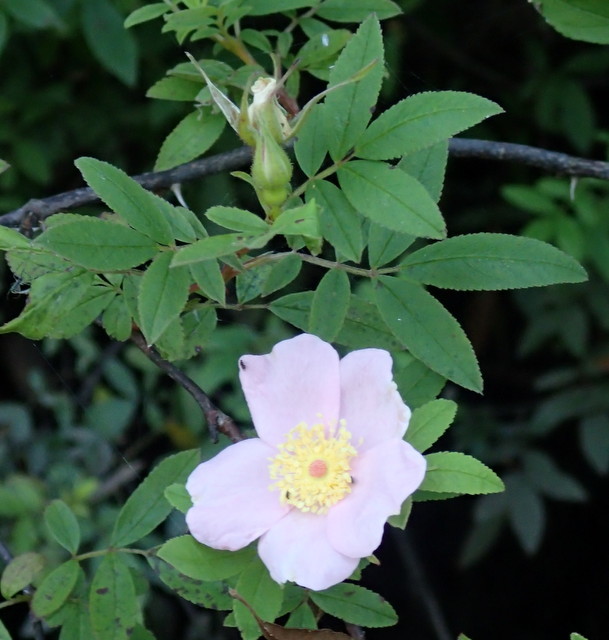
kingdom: Plantae
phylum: Tracheophyta
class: Magnoliopsida
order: Rosales
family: Rosaceae
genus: Rosa
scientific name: Rosa palustris
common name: Swamp rose
